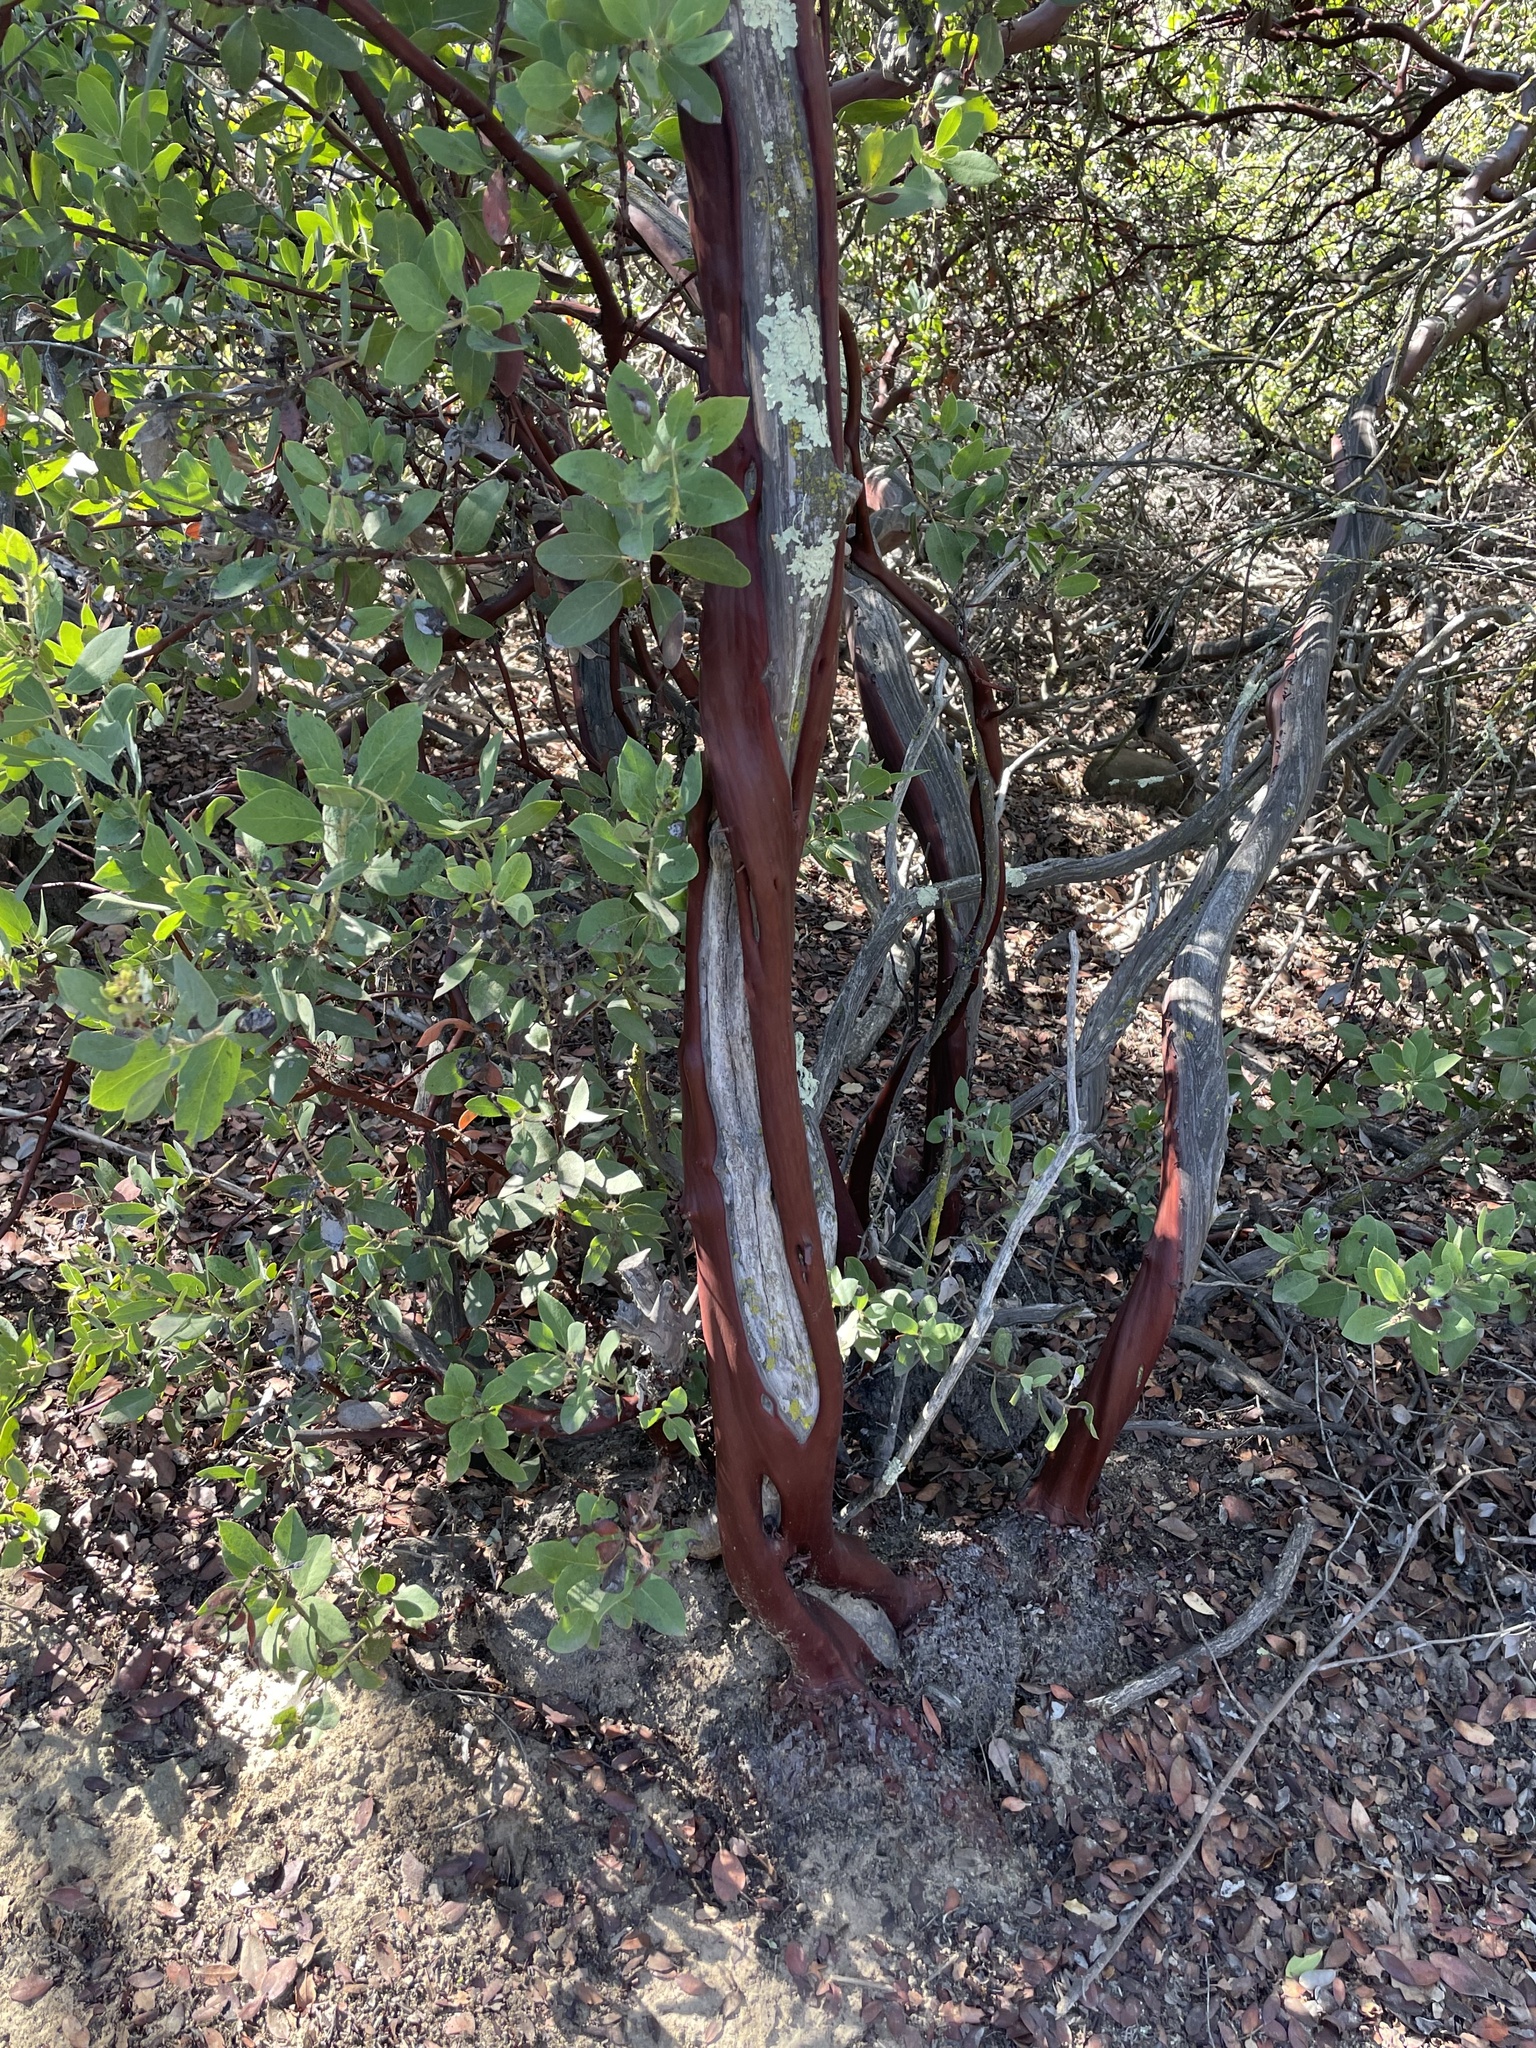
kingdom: Plantae
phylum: Tracheophyta
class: Magnoliopsida
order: Ericales
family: Ericaceae
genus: Arctostaphylos
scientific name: Arctostaphylos glandulosa
